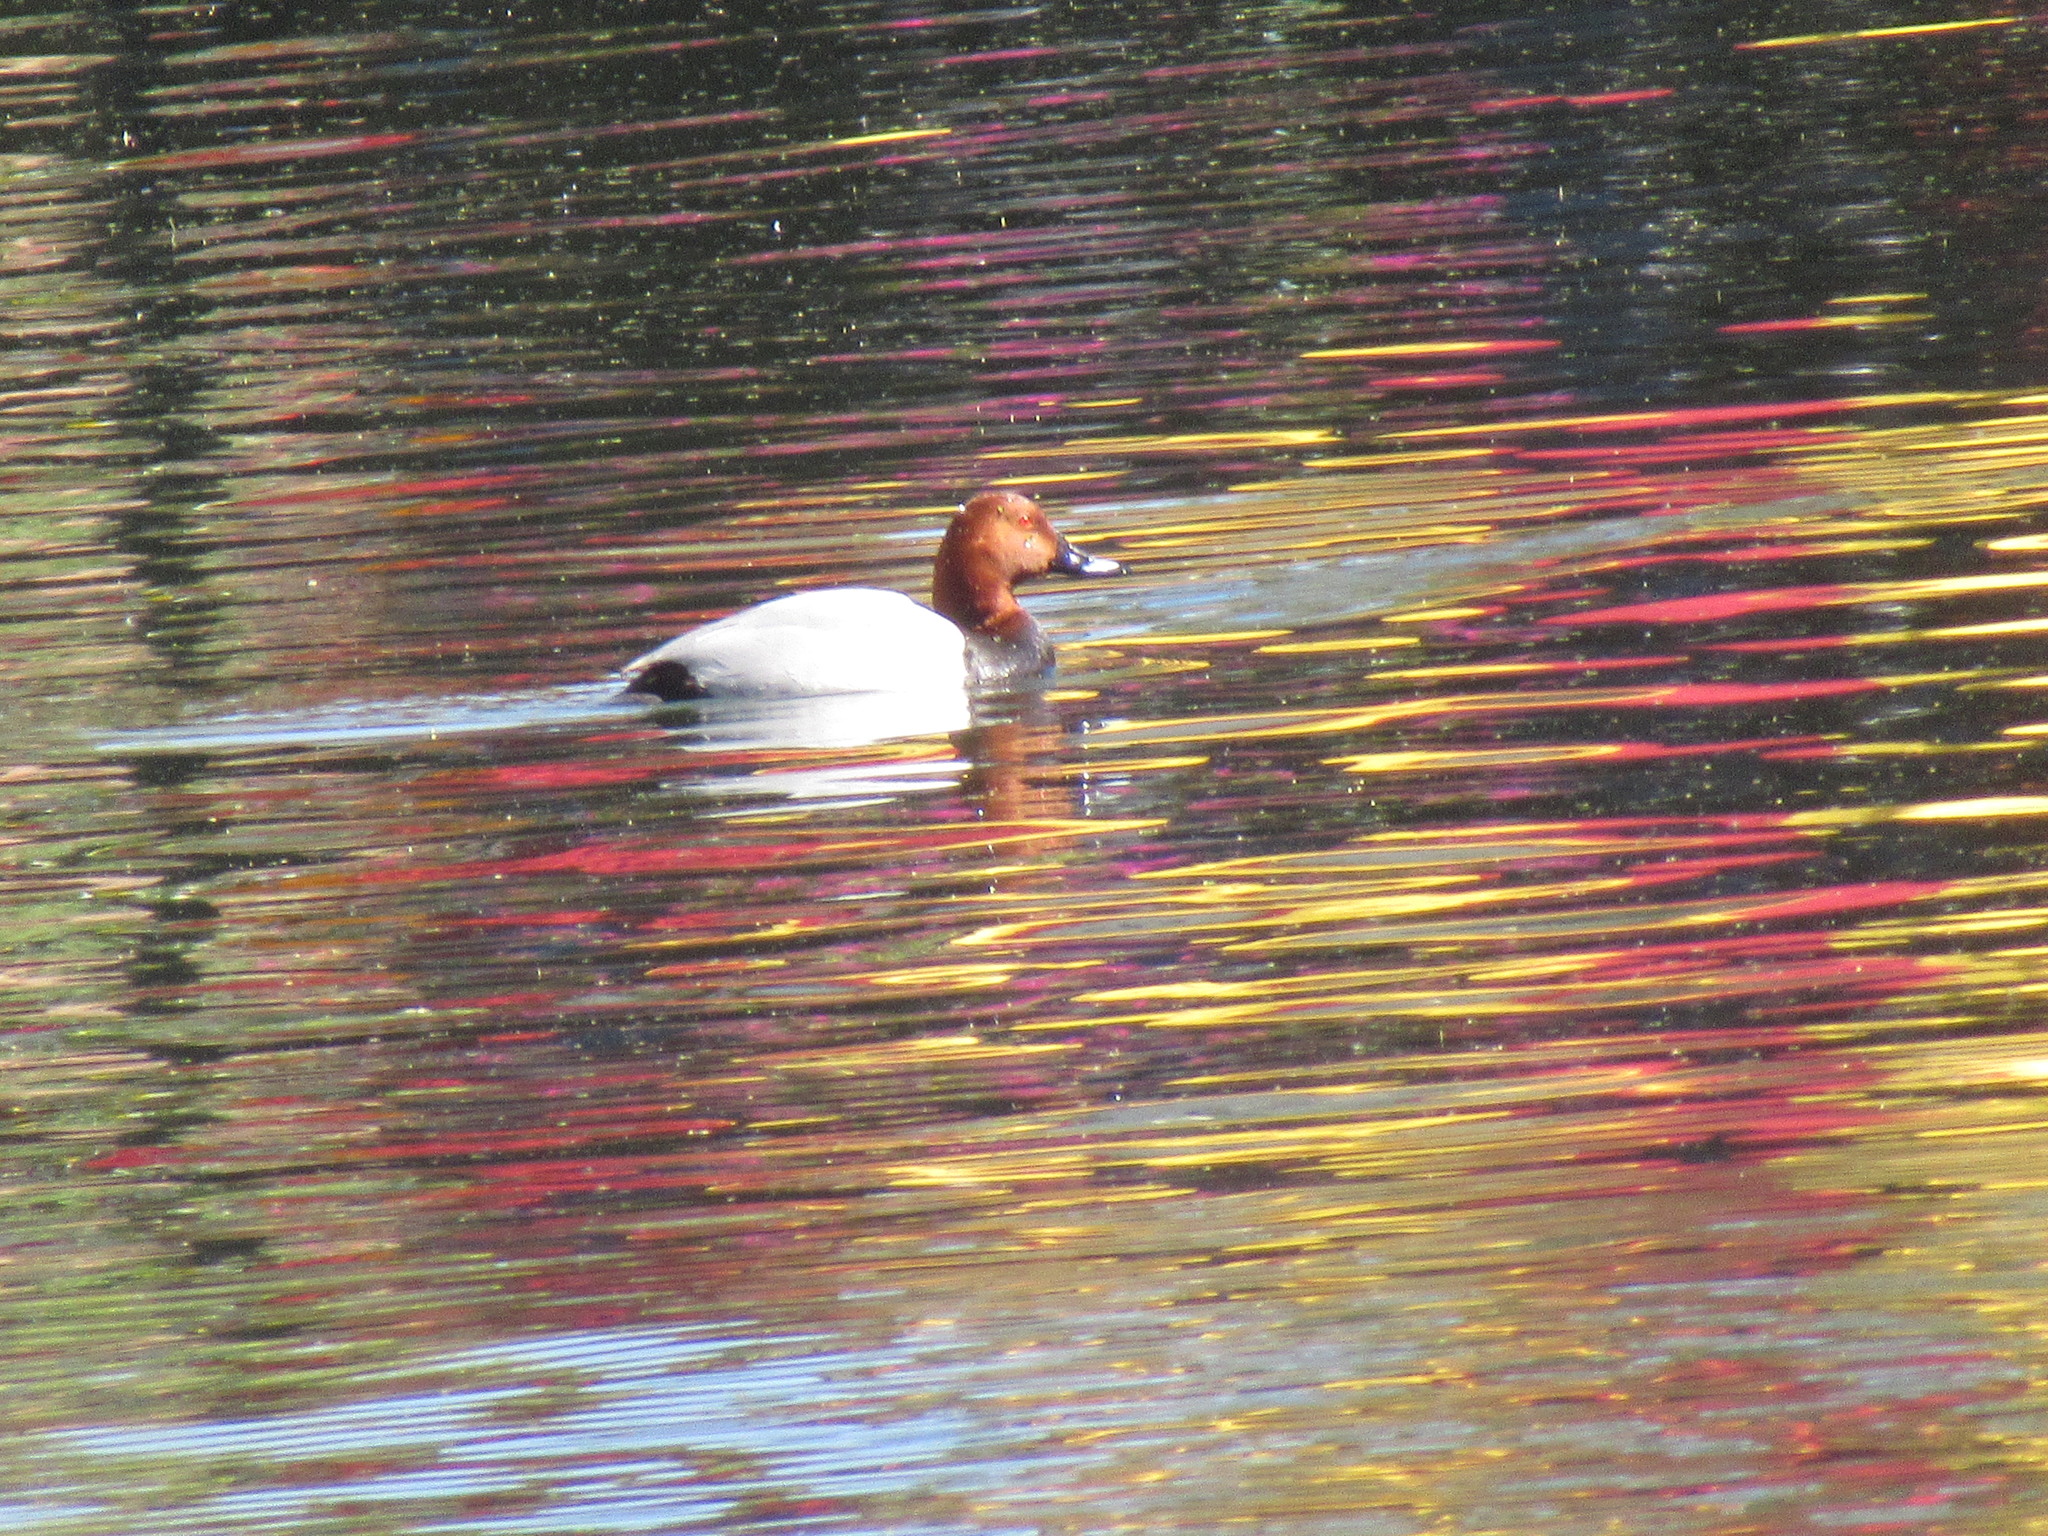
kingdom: Animalia
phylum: Chordata
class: Aves
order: Anseriformes
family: Anatidae
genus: Aythya
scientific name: Aythya ferina
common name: Common pochard
